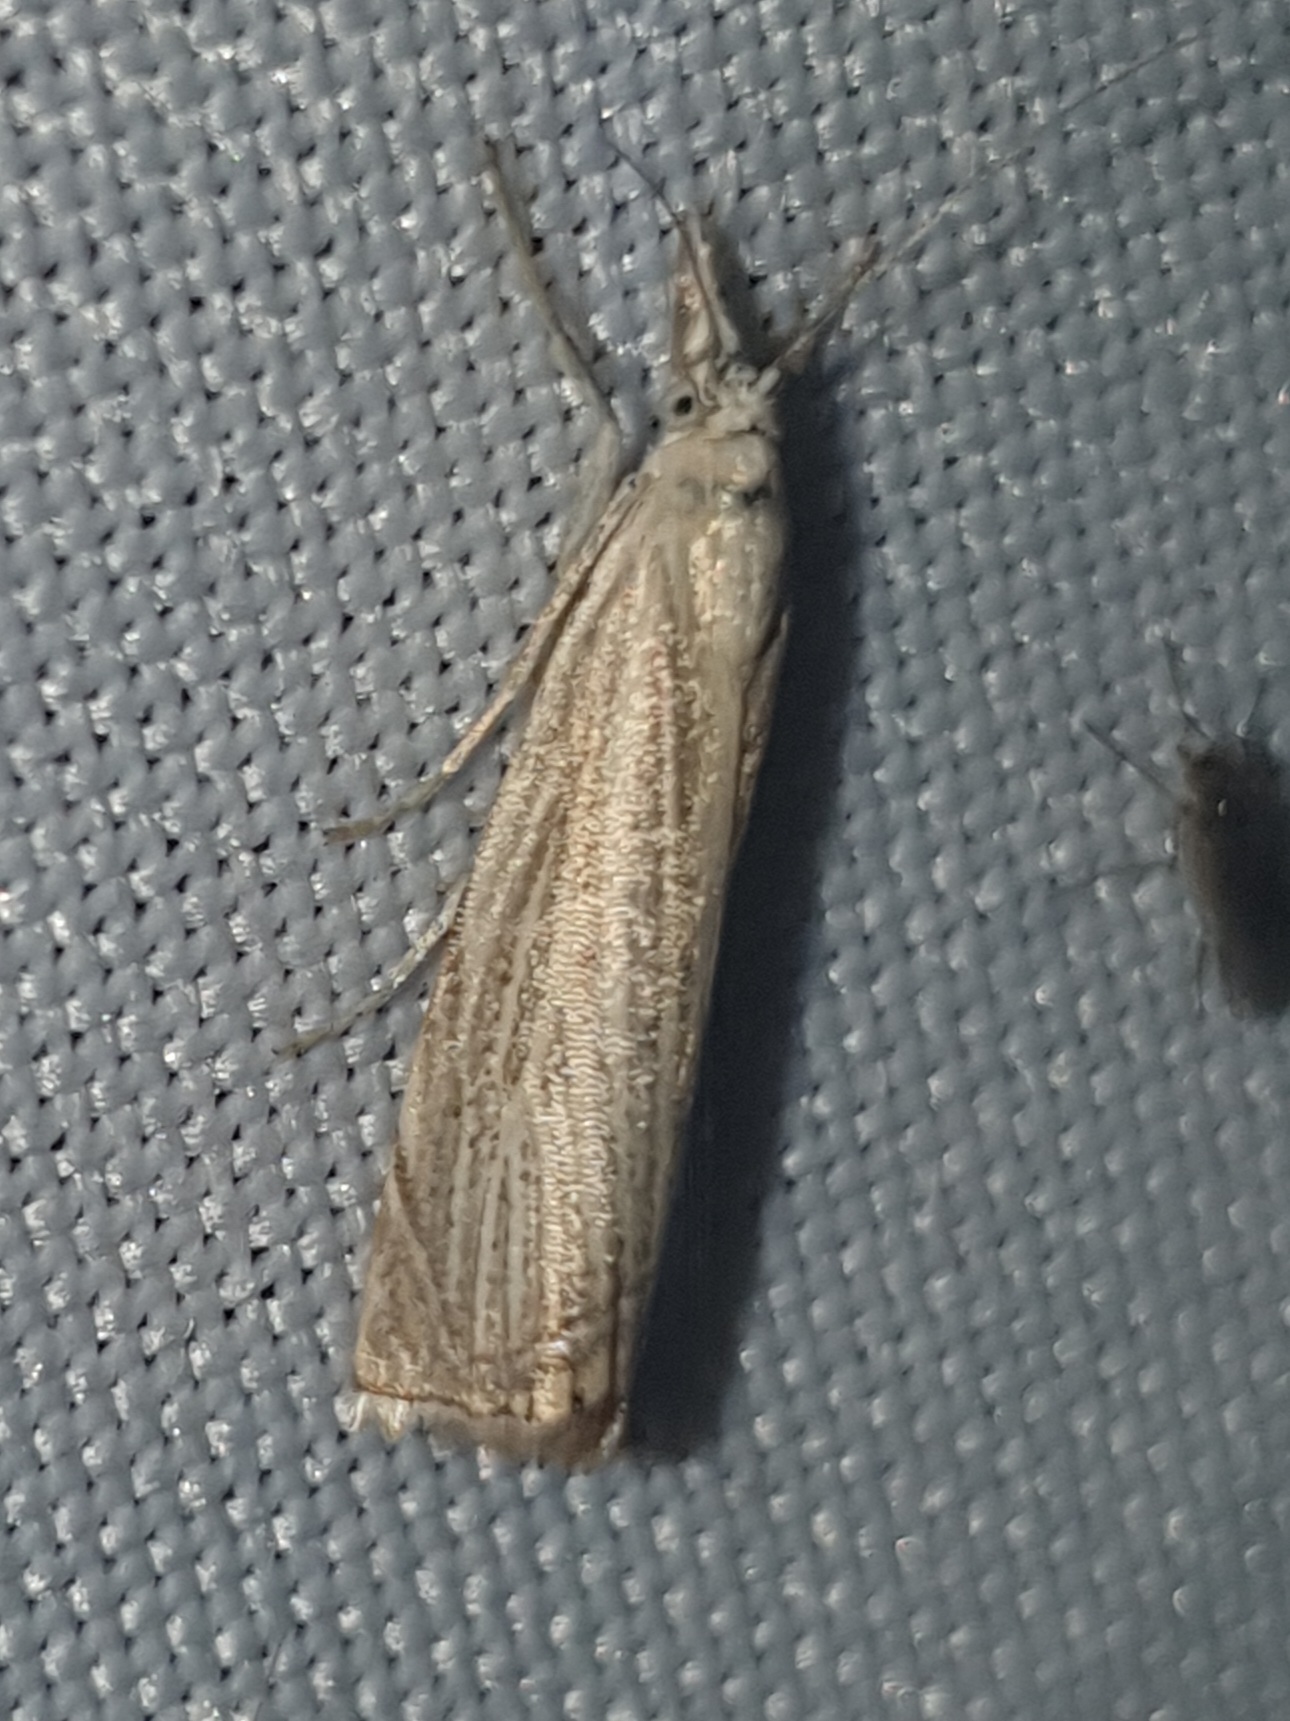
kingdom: Animalia
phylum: Arthropoda
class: Insecta
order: Lepidoptera
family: Crambidae
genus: Chrysoteuchia
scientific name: Chrysoteuchia culmella
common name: Garden grass-veneer
